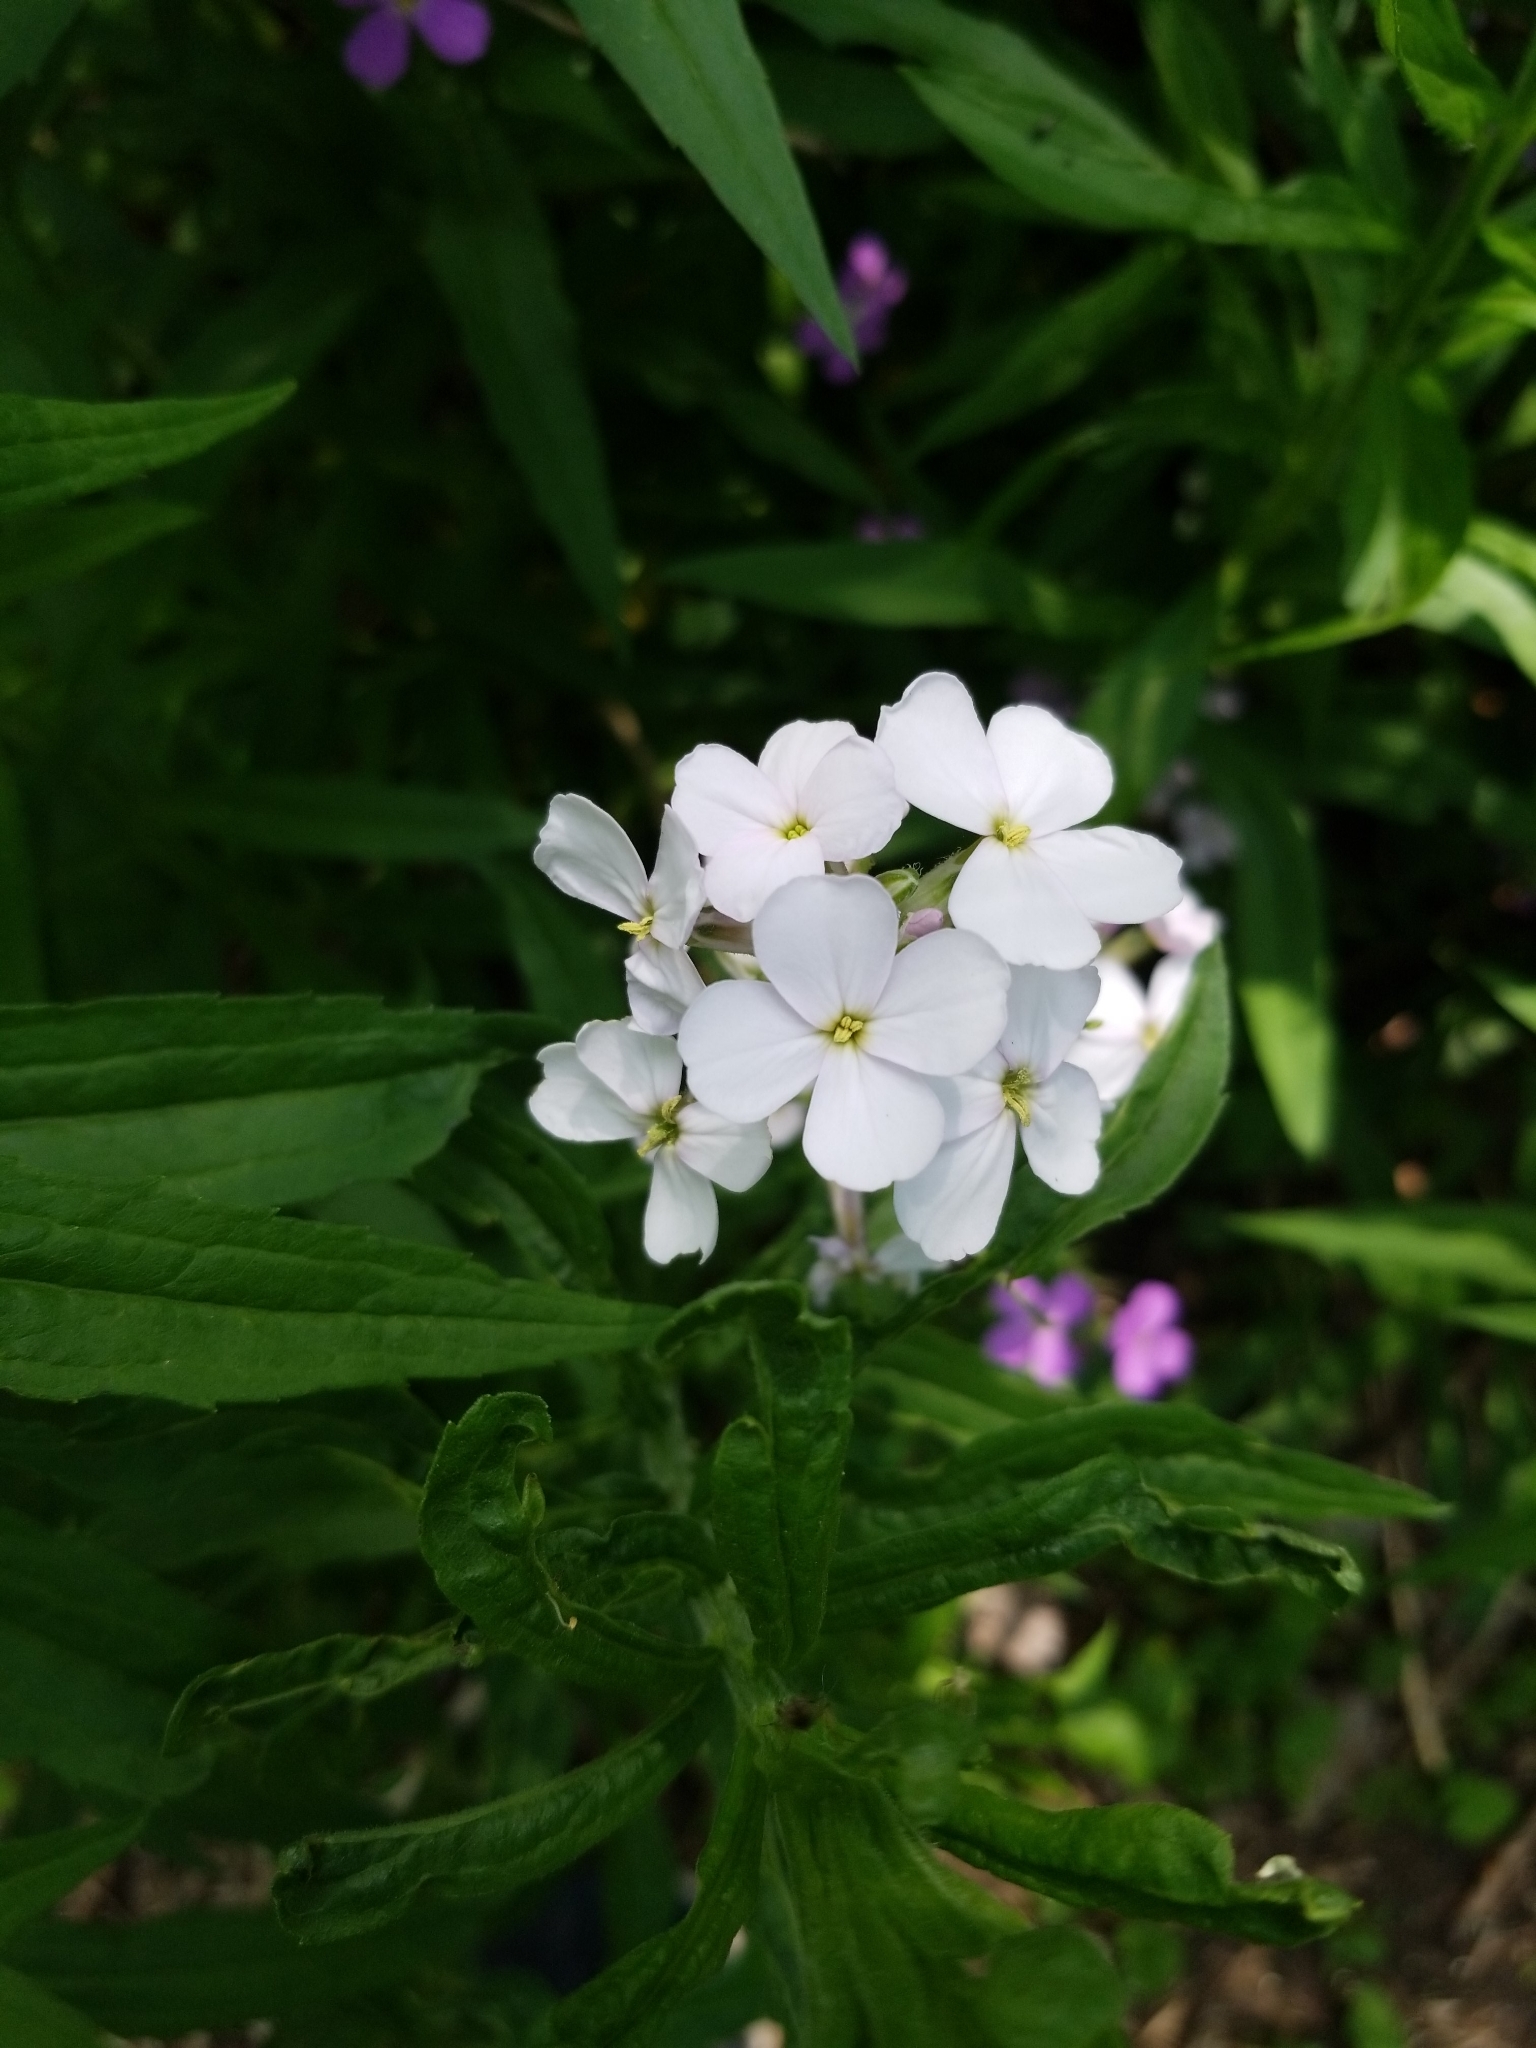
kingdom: Plantae
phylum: Tracheophyta
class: Magnoliopsida
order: Brassicales
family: Brassicaceae
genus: Hesperis
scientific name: Hesperis matronalis
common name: Dame's-violet
